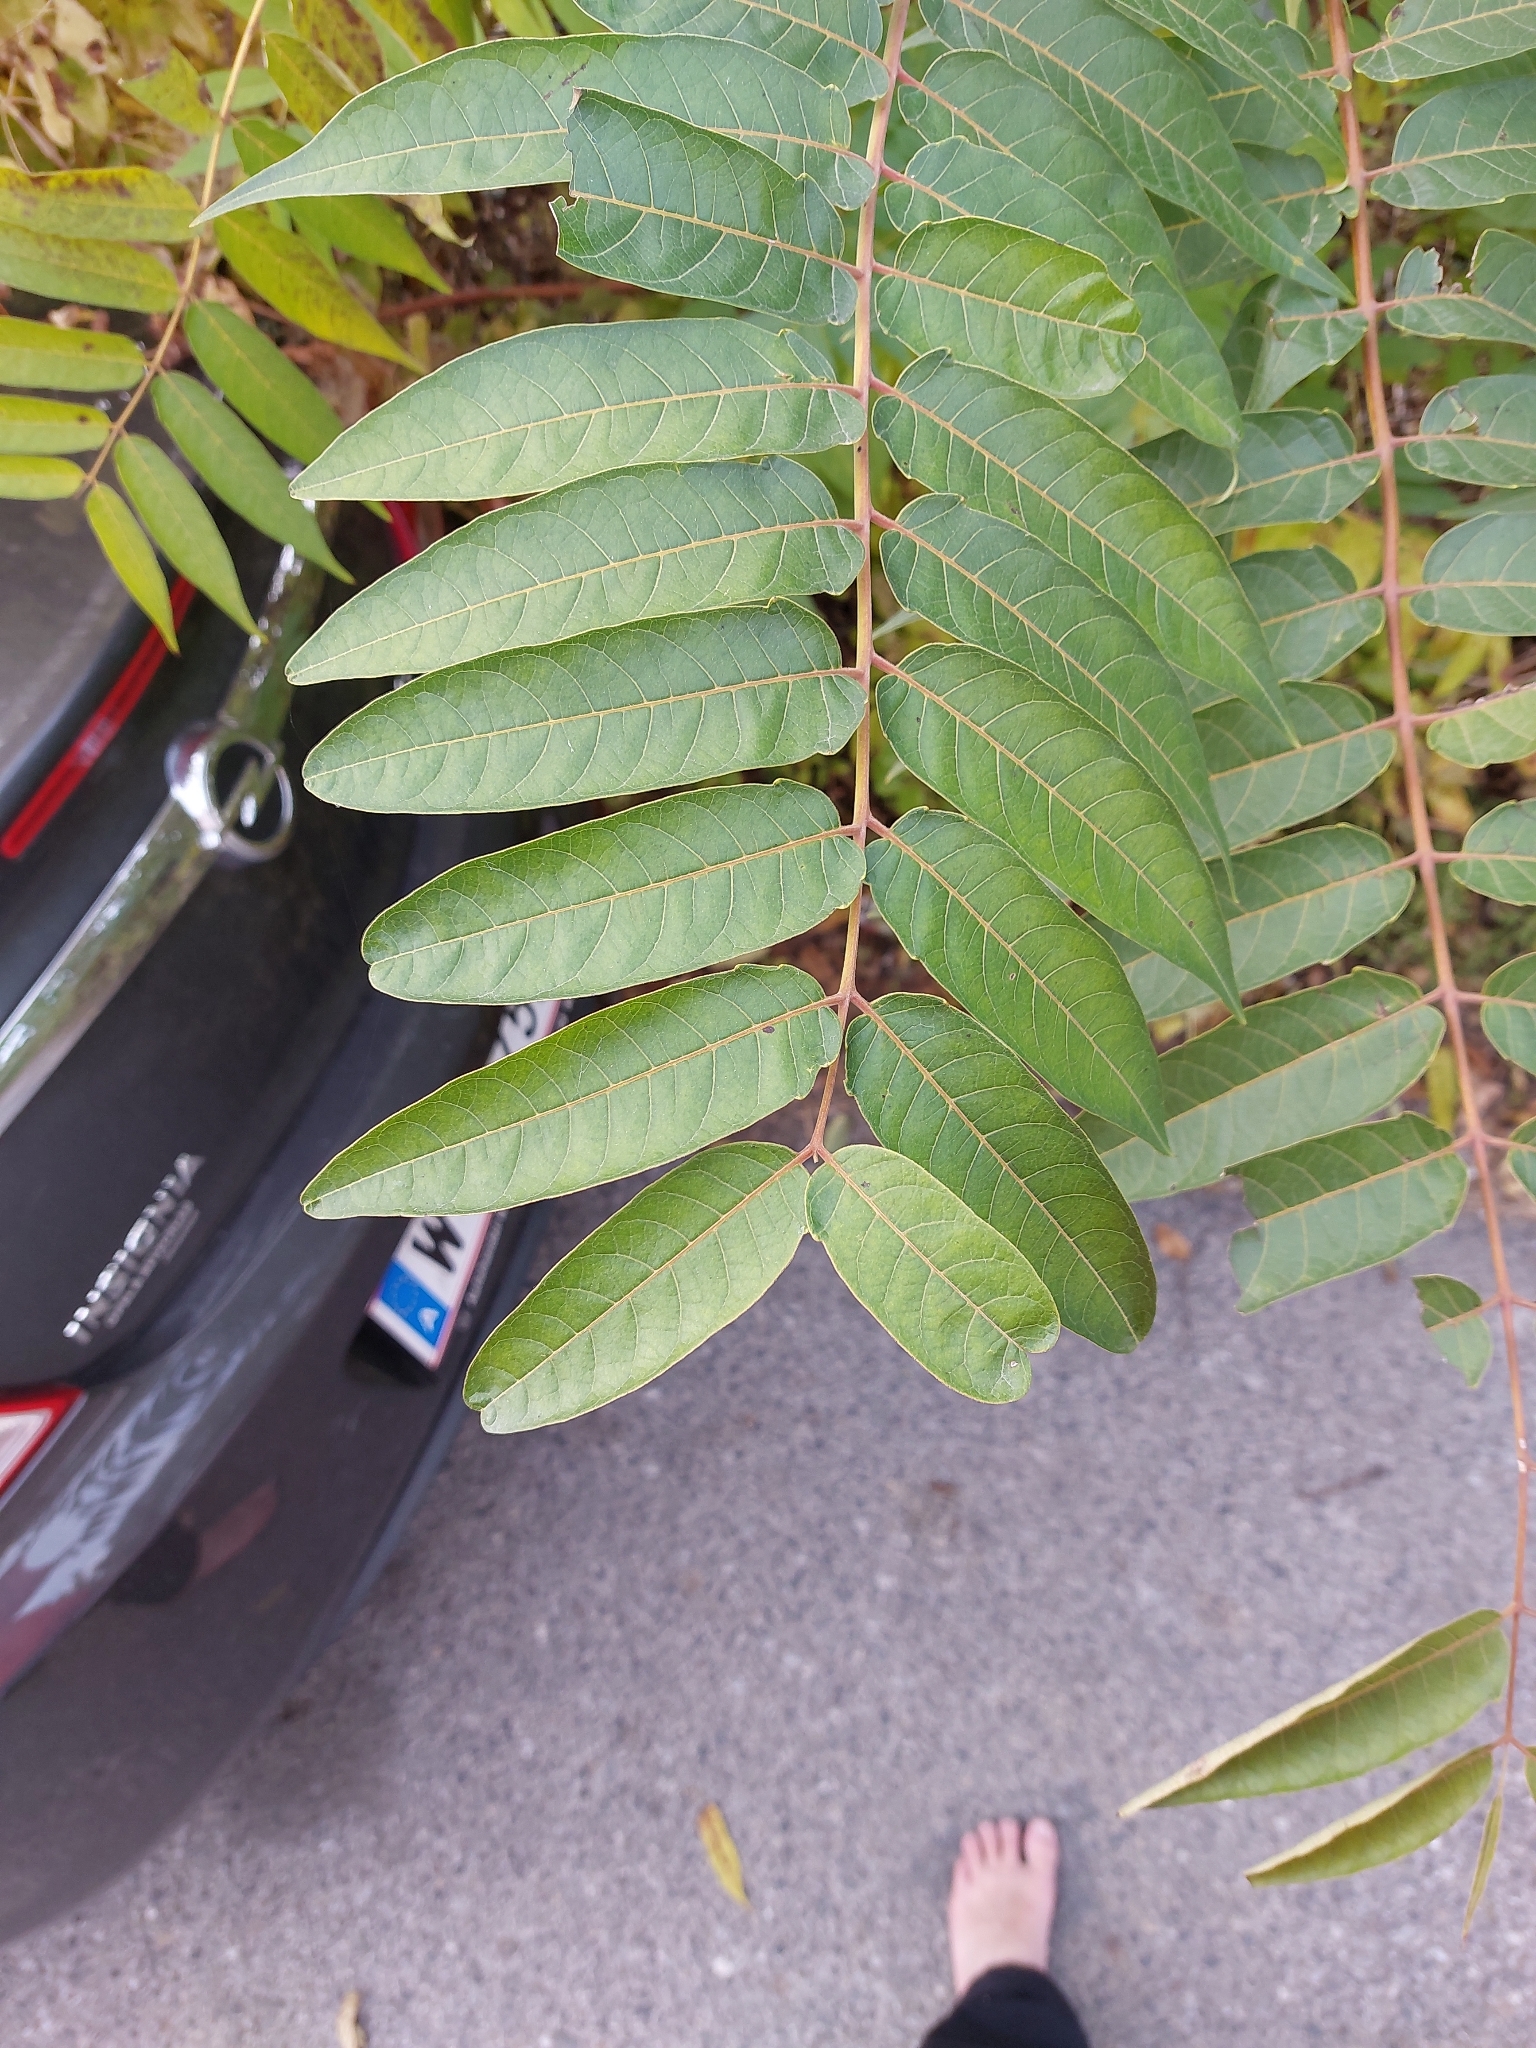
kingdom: Plantae
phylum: Tracheophyta
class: Magnoliopsida
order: Sapindales
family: Simaroubaceae
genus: Ailanthus
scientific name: Ailanthus altissima
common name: Tree-of-heaven
